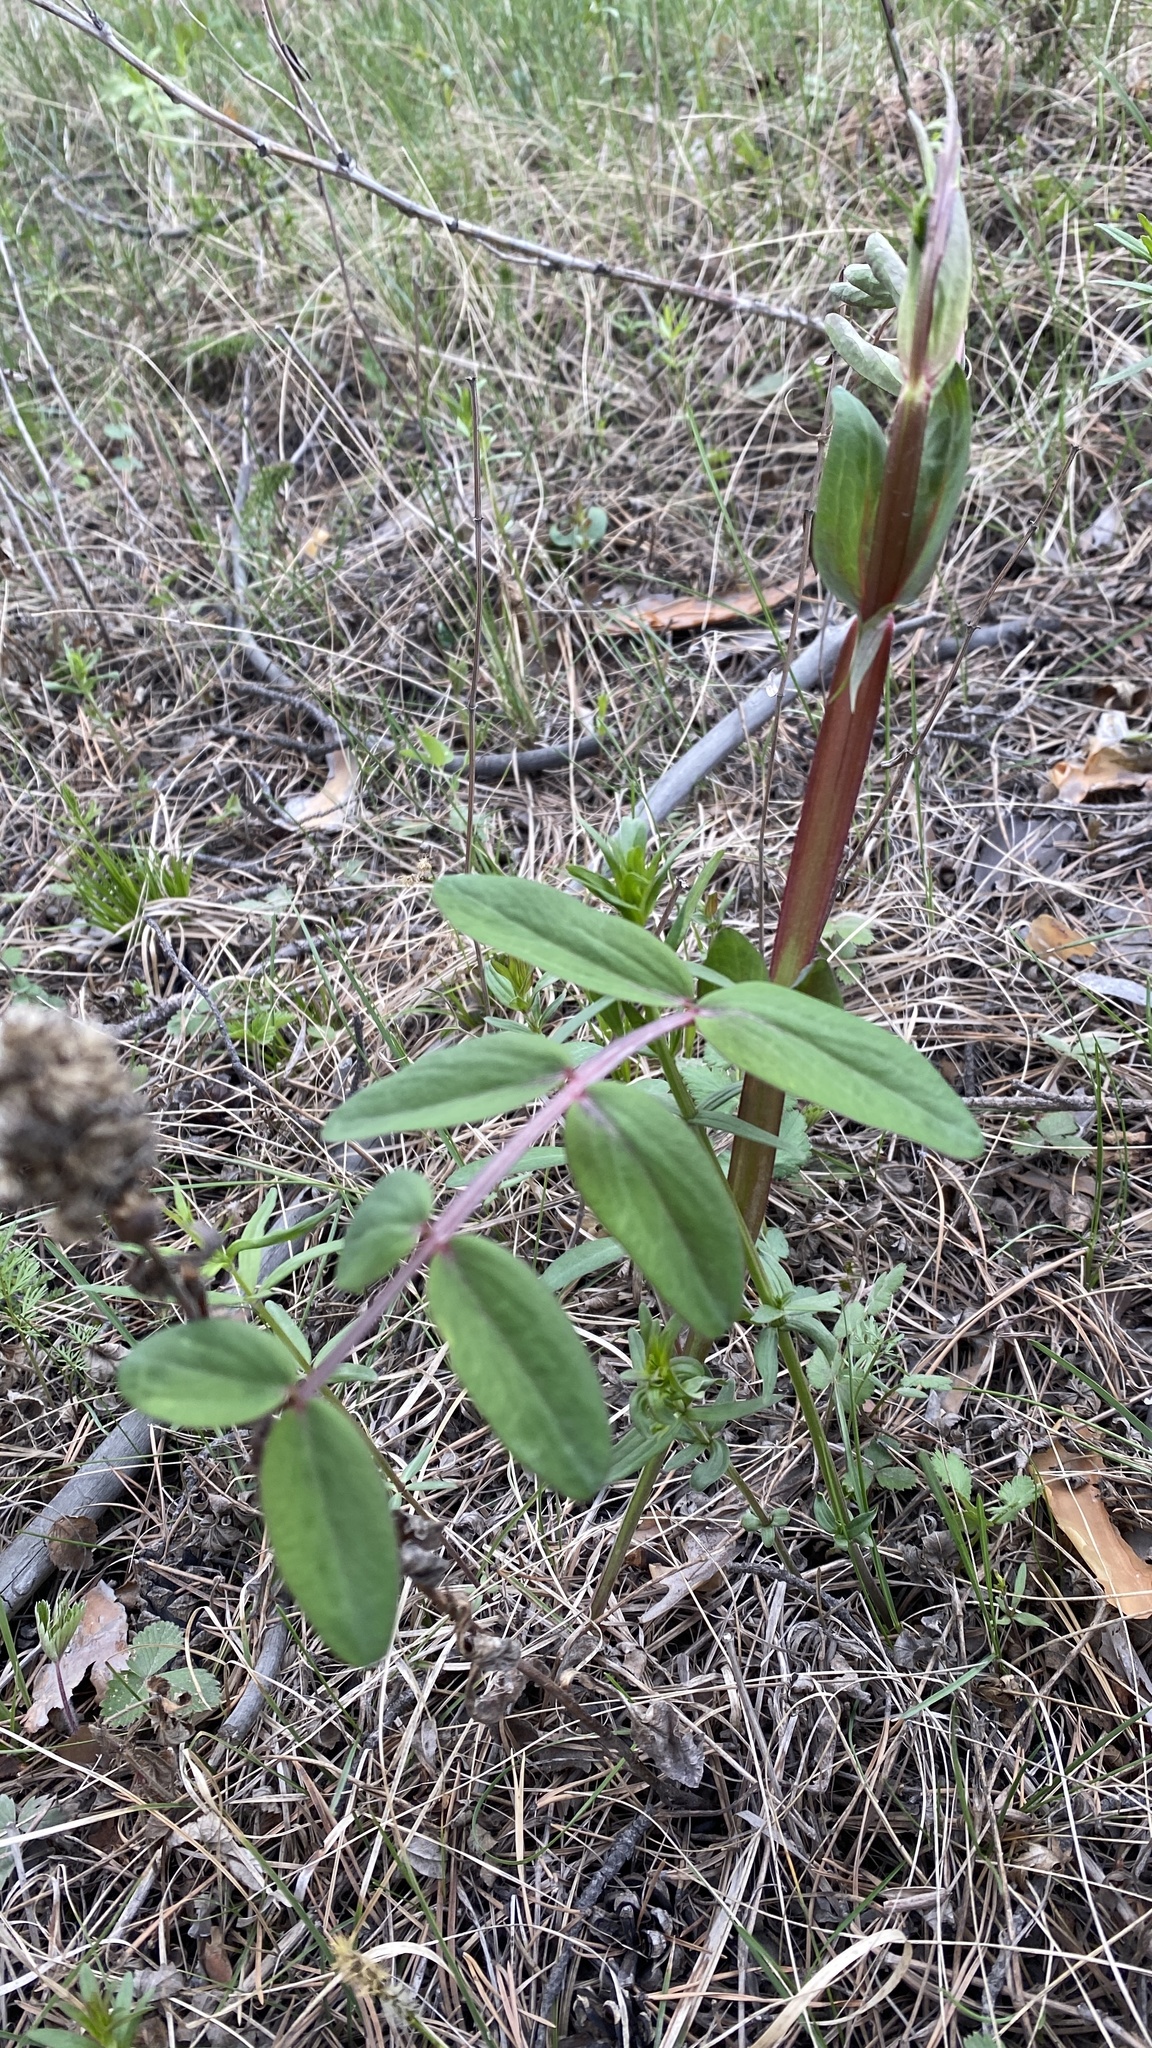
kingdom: Plantae
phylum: Tracheophyta
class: Magnoliopsida
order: Fabales
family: Fabaceae
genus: Lathyrus
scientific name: Lathyrus pisiformis
